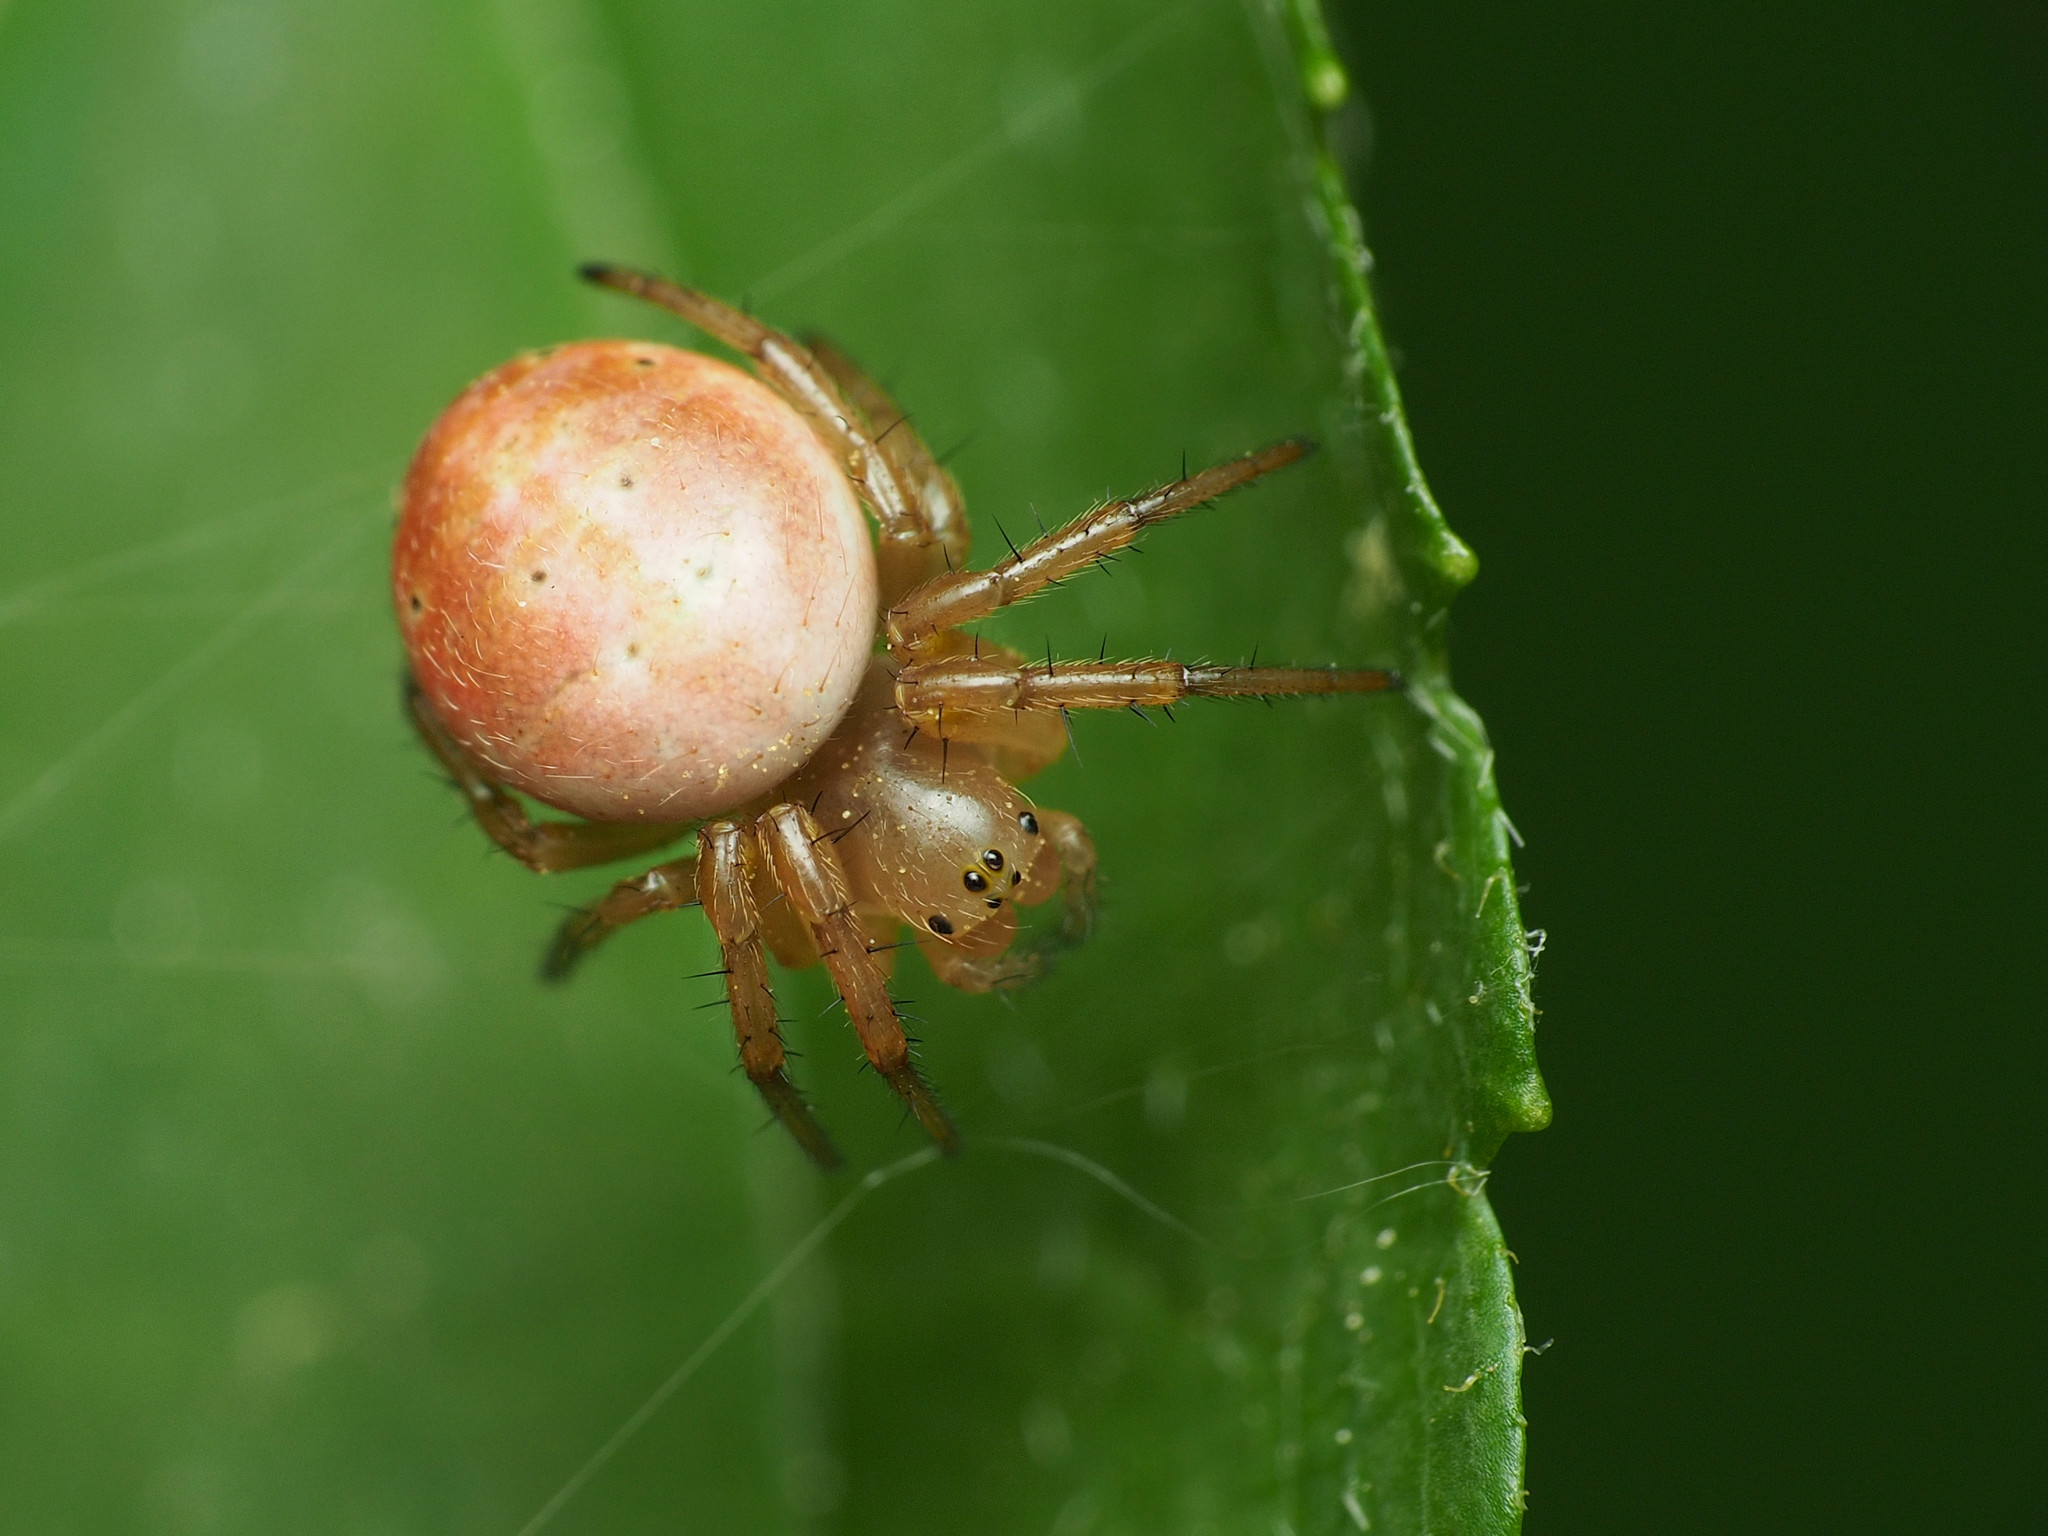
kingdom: Animalia
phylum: Arthropoda
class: Arachnida
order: Araneae
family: Araneidae
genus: Araniella
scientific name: Araniella displicata
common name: Sixspotted orb weaver
